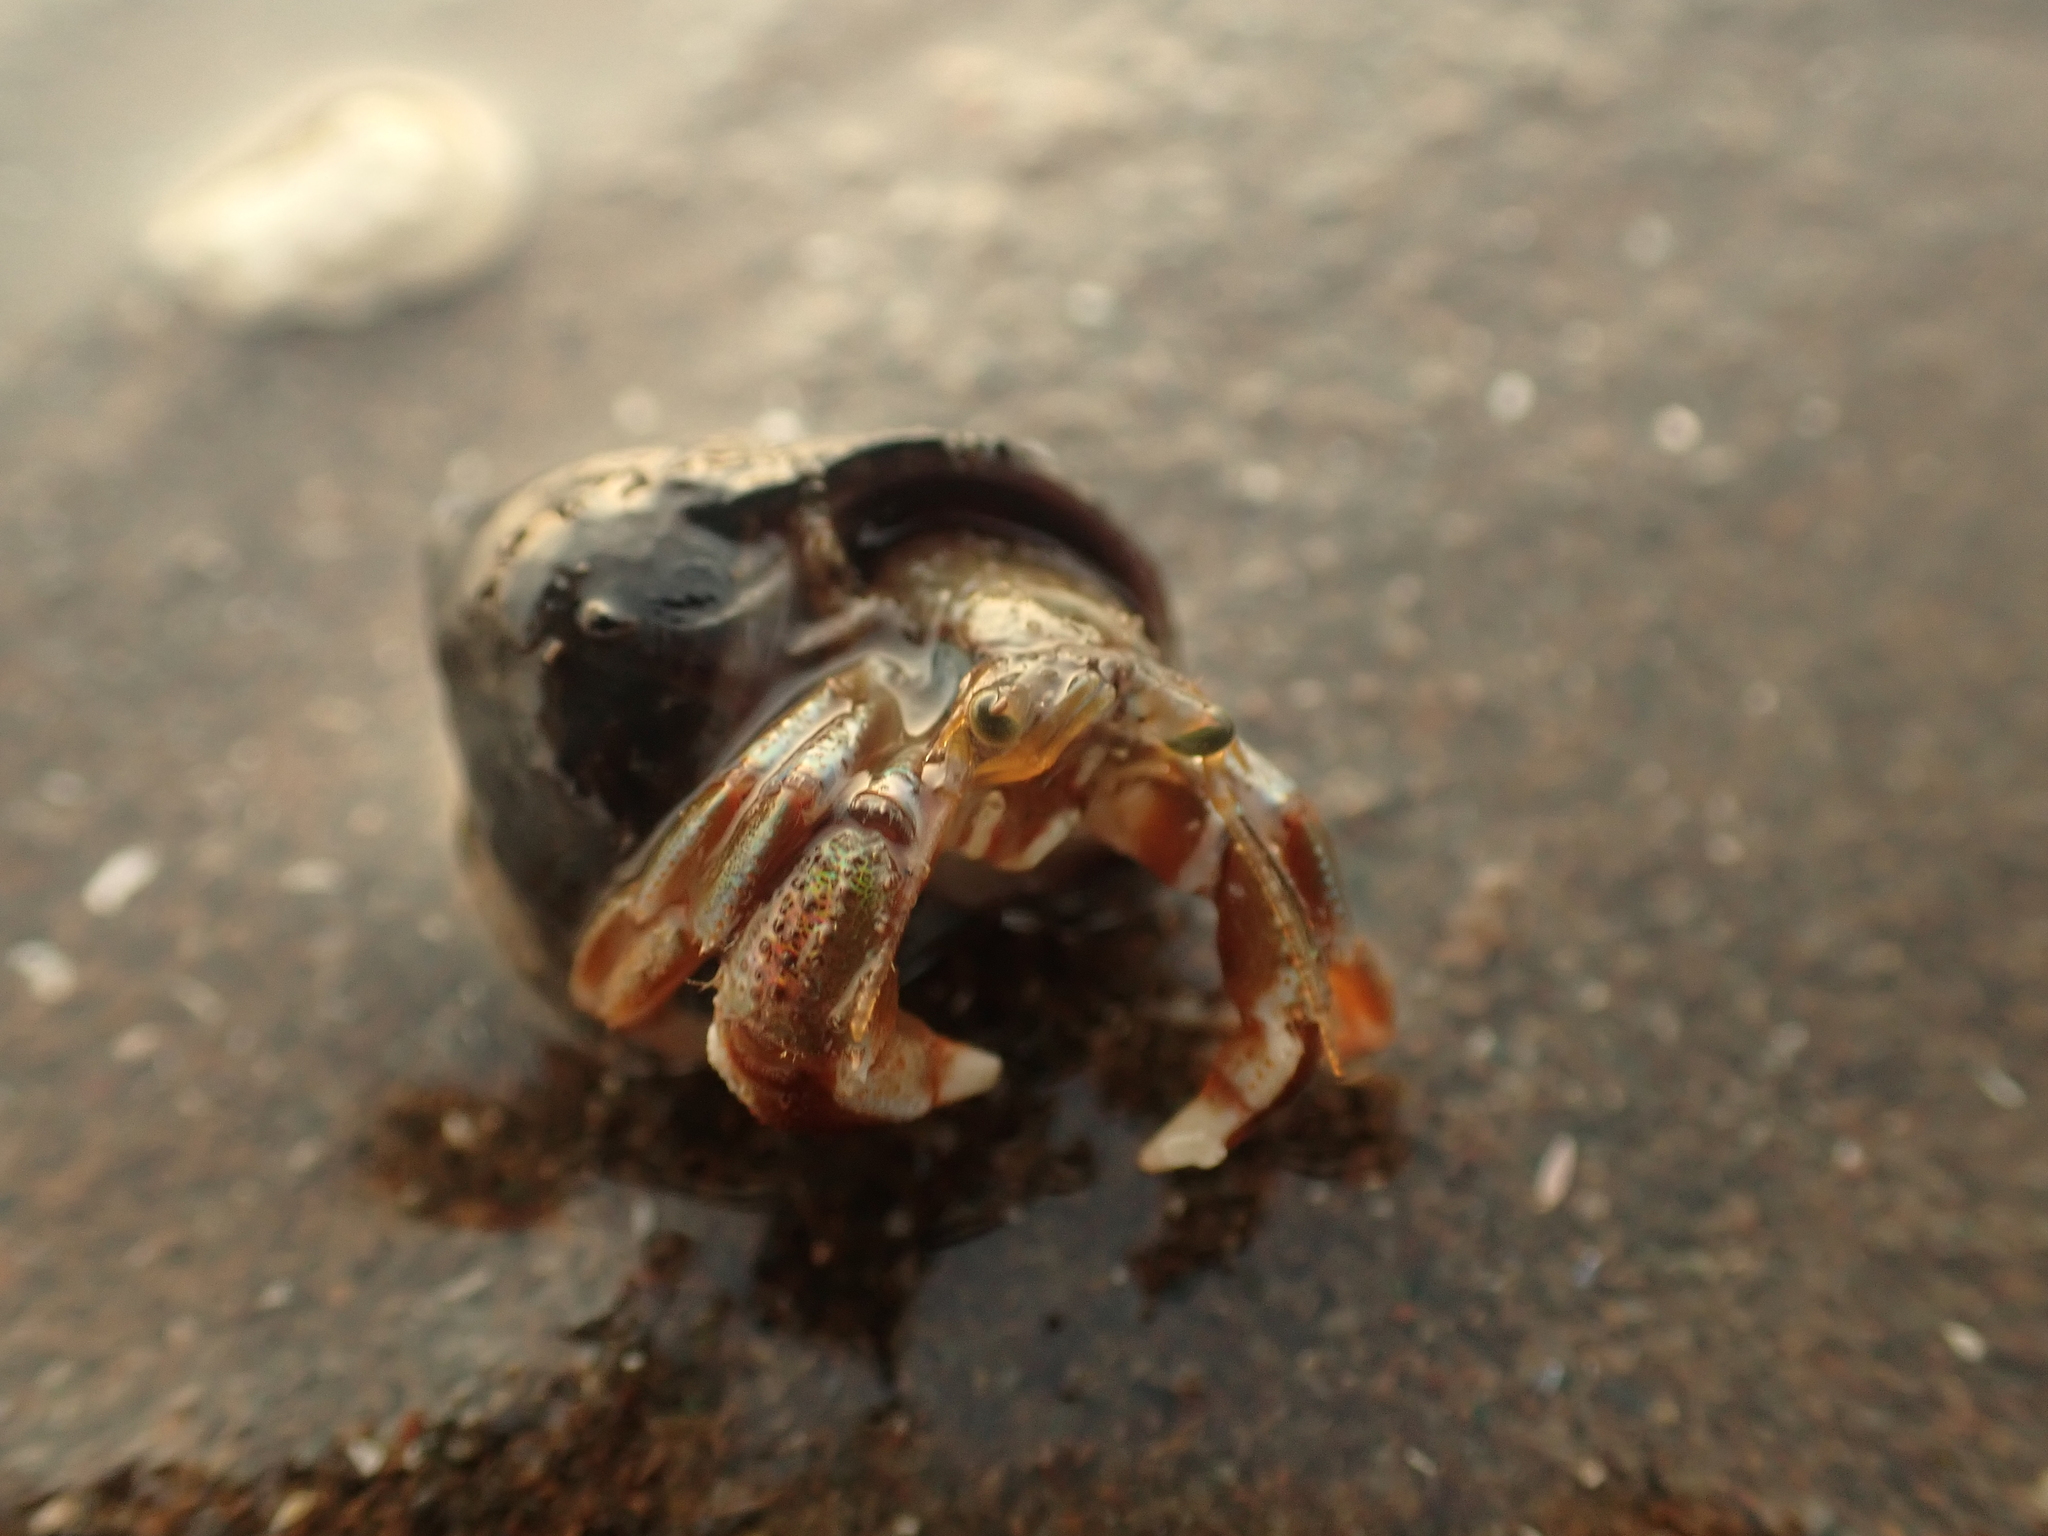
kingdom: Animalia
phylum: Arthropoda
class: Malacostraca
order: Decapoda
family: Paguridae
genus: Pagurus
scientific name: Pagurus acadianus
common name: Acadian hermit crab
